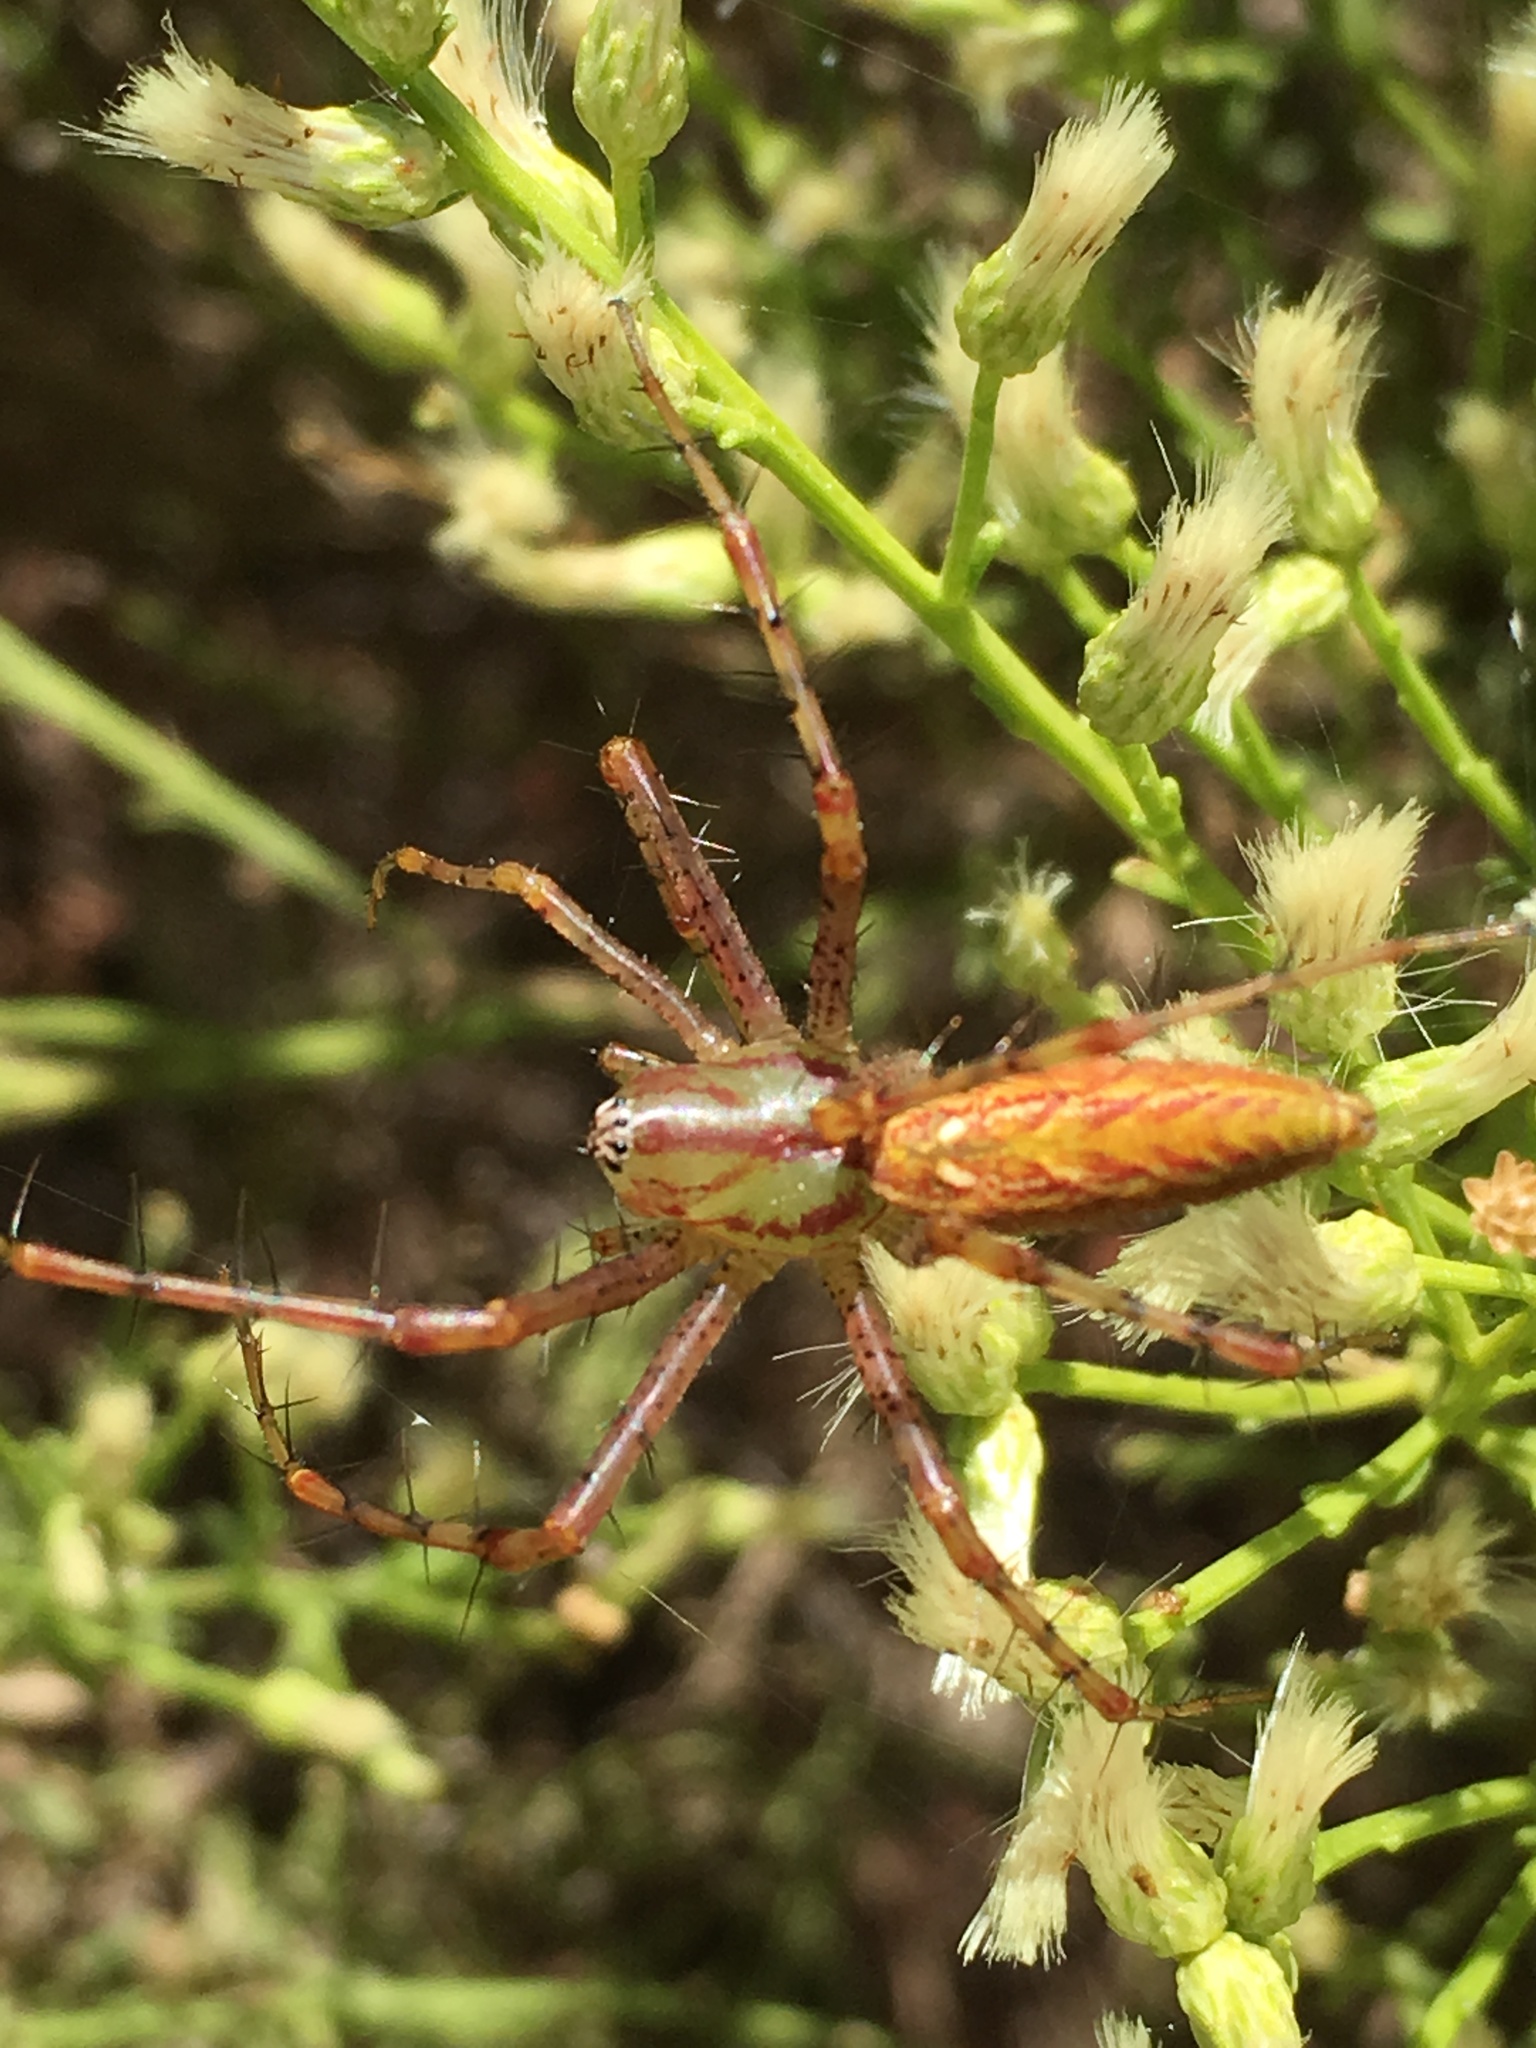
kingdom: Animalia
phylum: Arthropoda
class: Arachnida
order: Araneae
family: Oxyopidae
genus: Peucetia
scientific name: Peucetia viridans
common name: Lynx spiders
